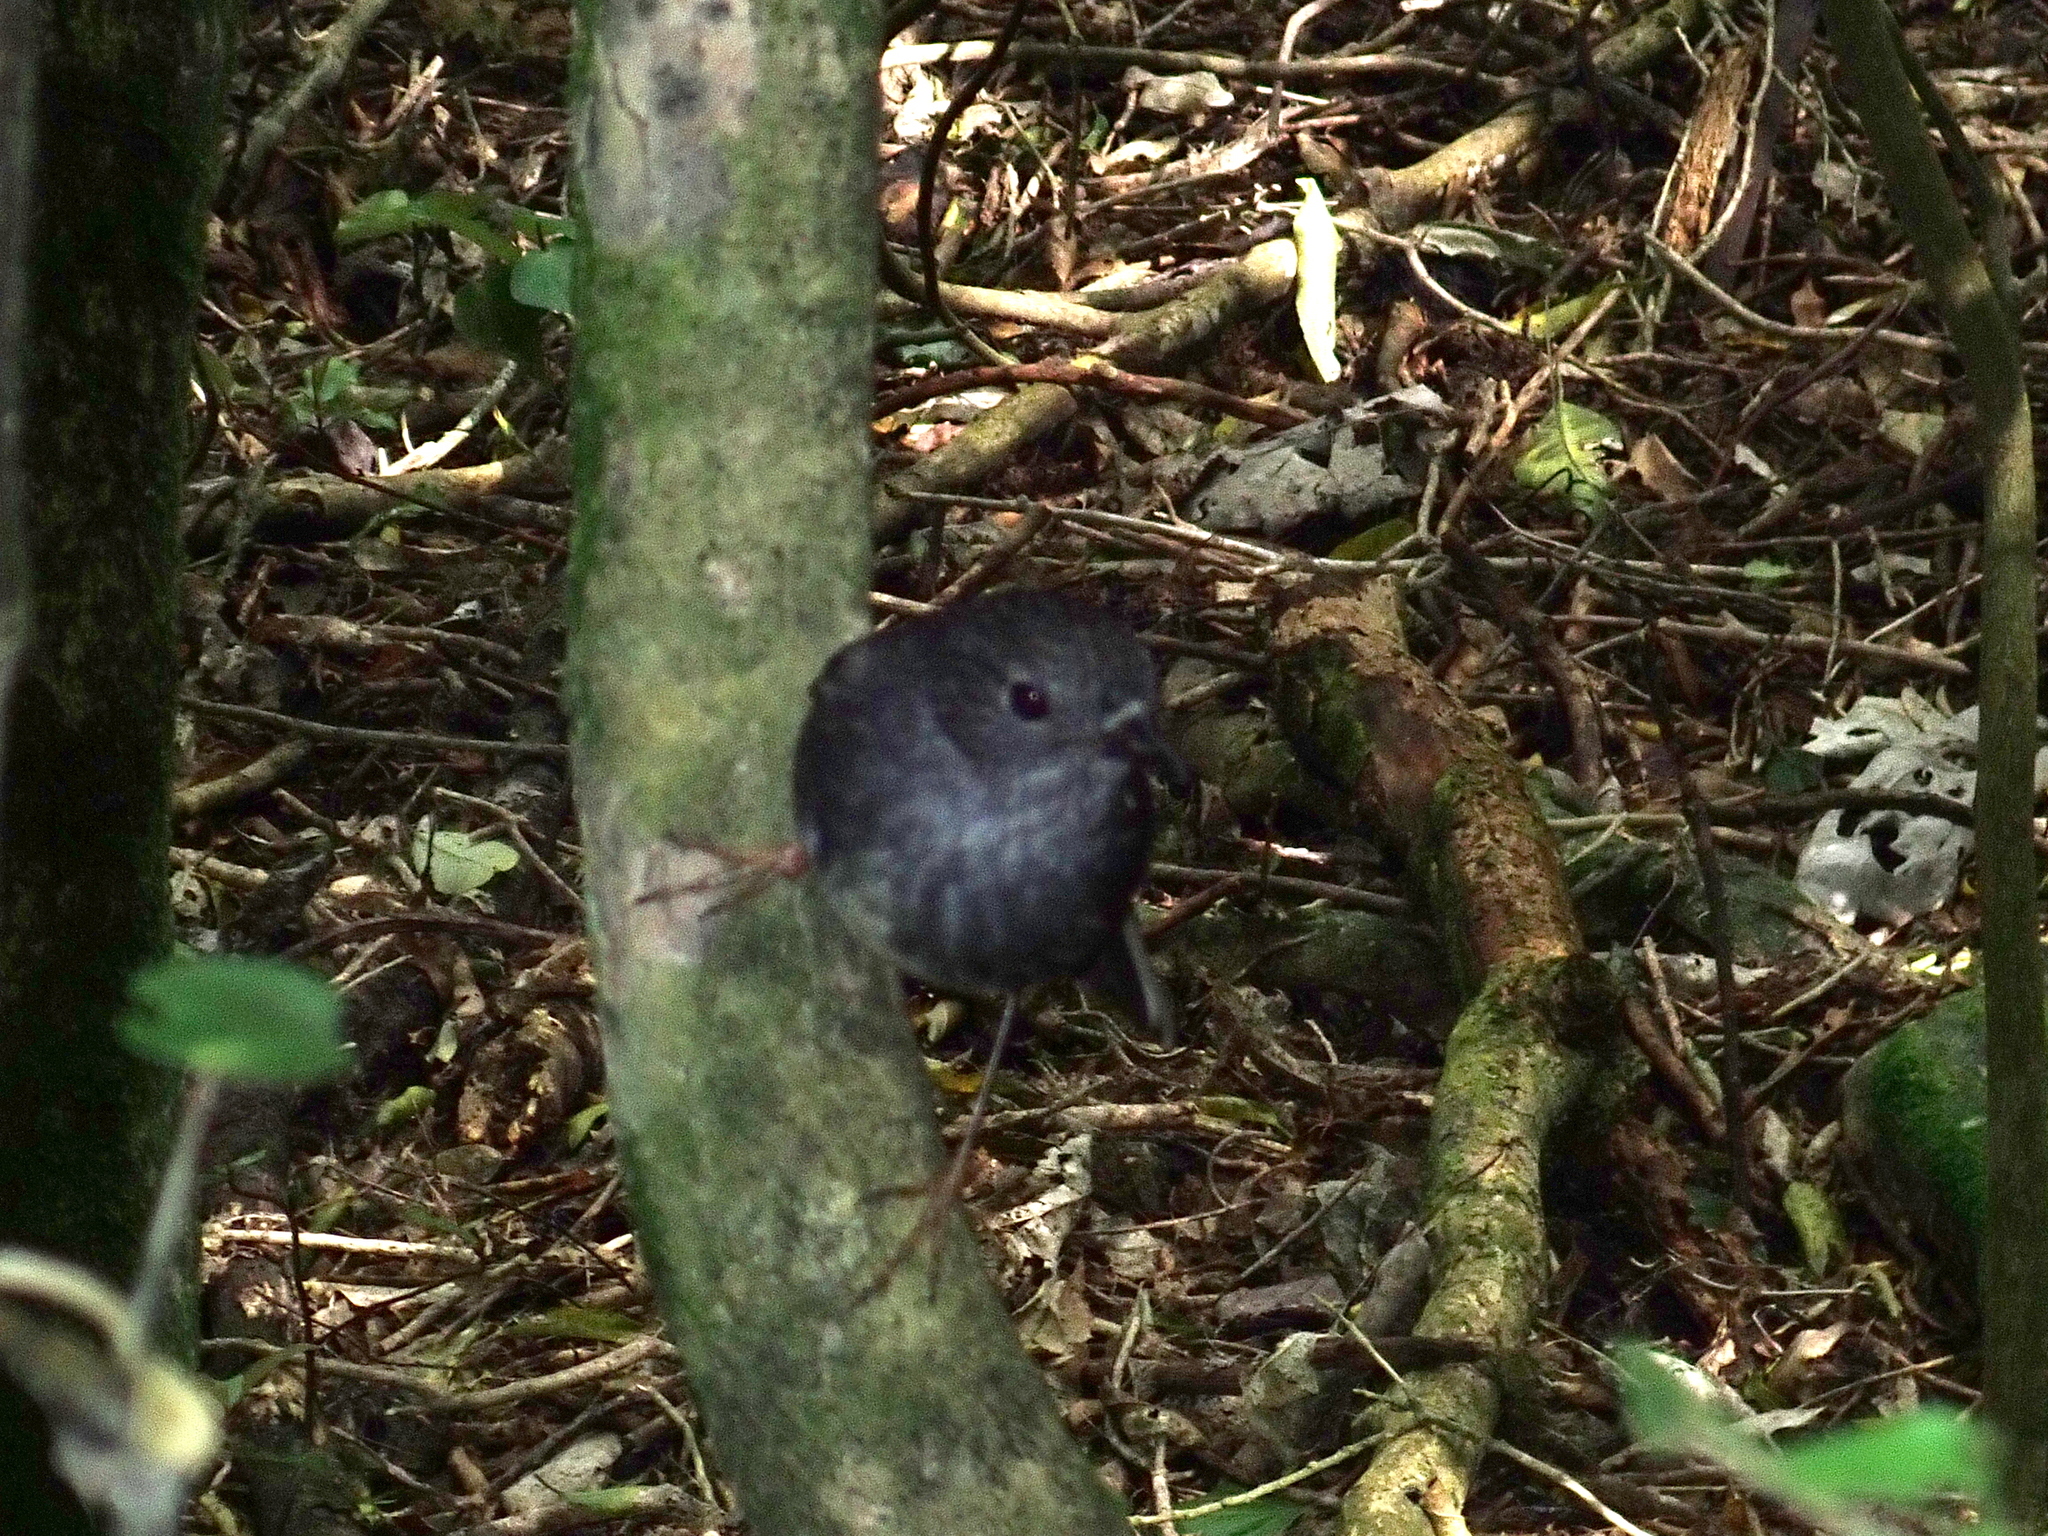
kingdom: Animalia
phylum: Chordata
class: Aves
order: Passeriformes
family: Petroicidae
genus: Petroica
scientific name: Petroica australis
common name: New zealand robin
